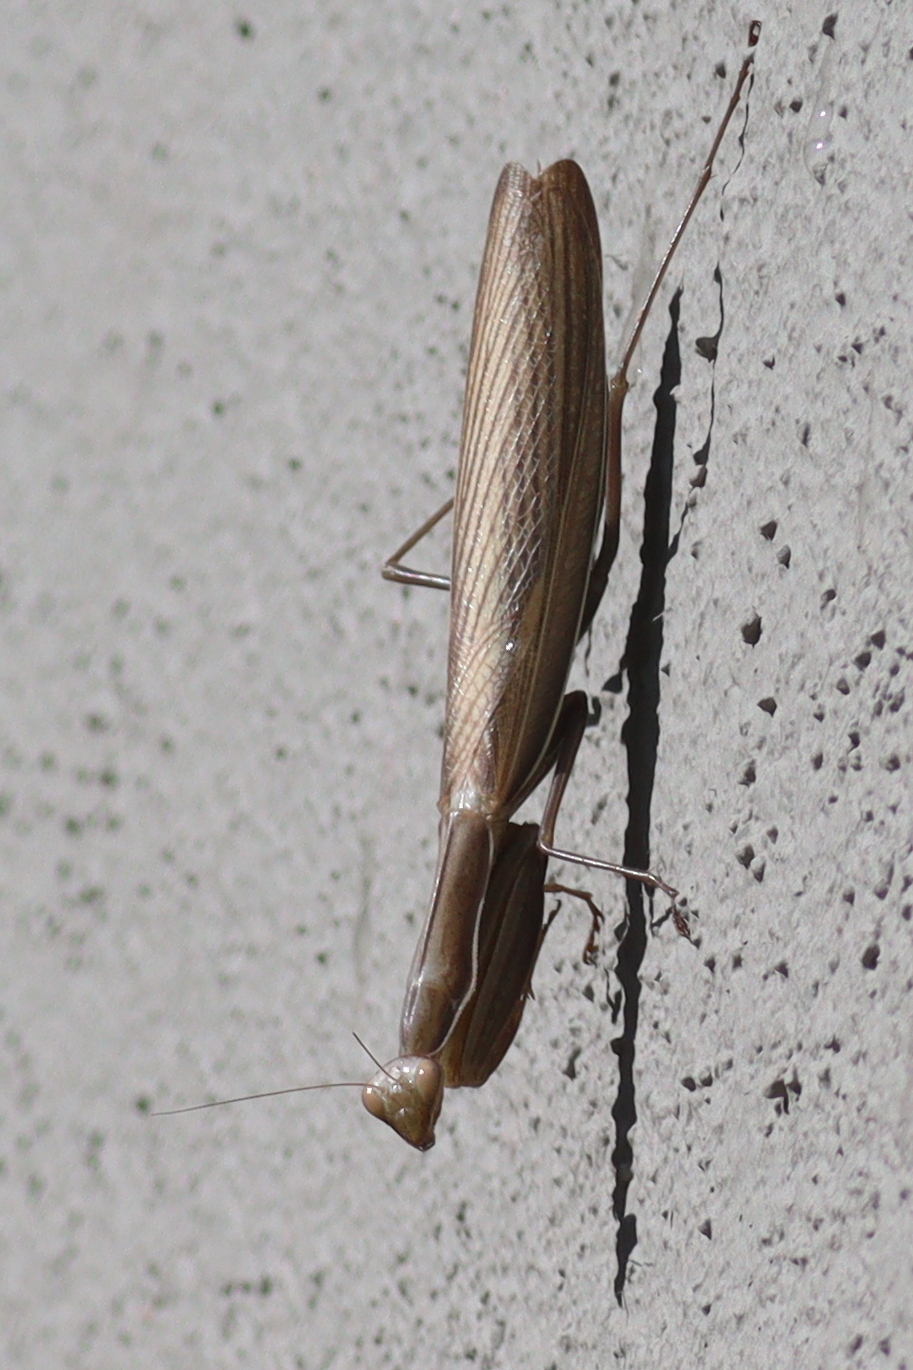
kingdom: Animalia
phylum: Arthropoda
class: Insecta
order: Mantodea
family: Mantidae
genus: Mantis
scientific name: Mantis religiosa
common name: Praying mantis
